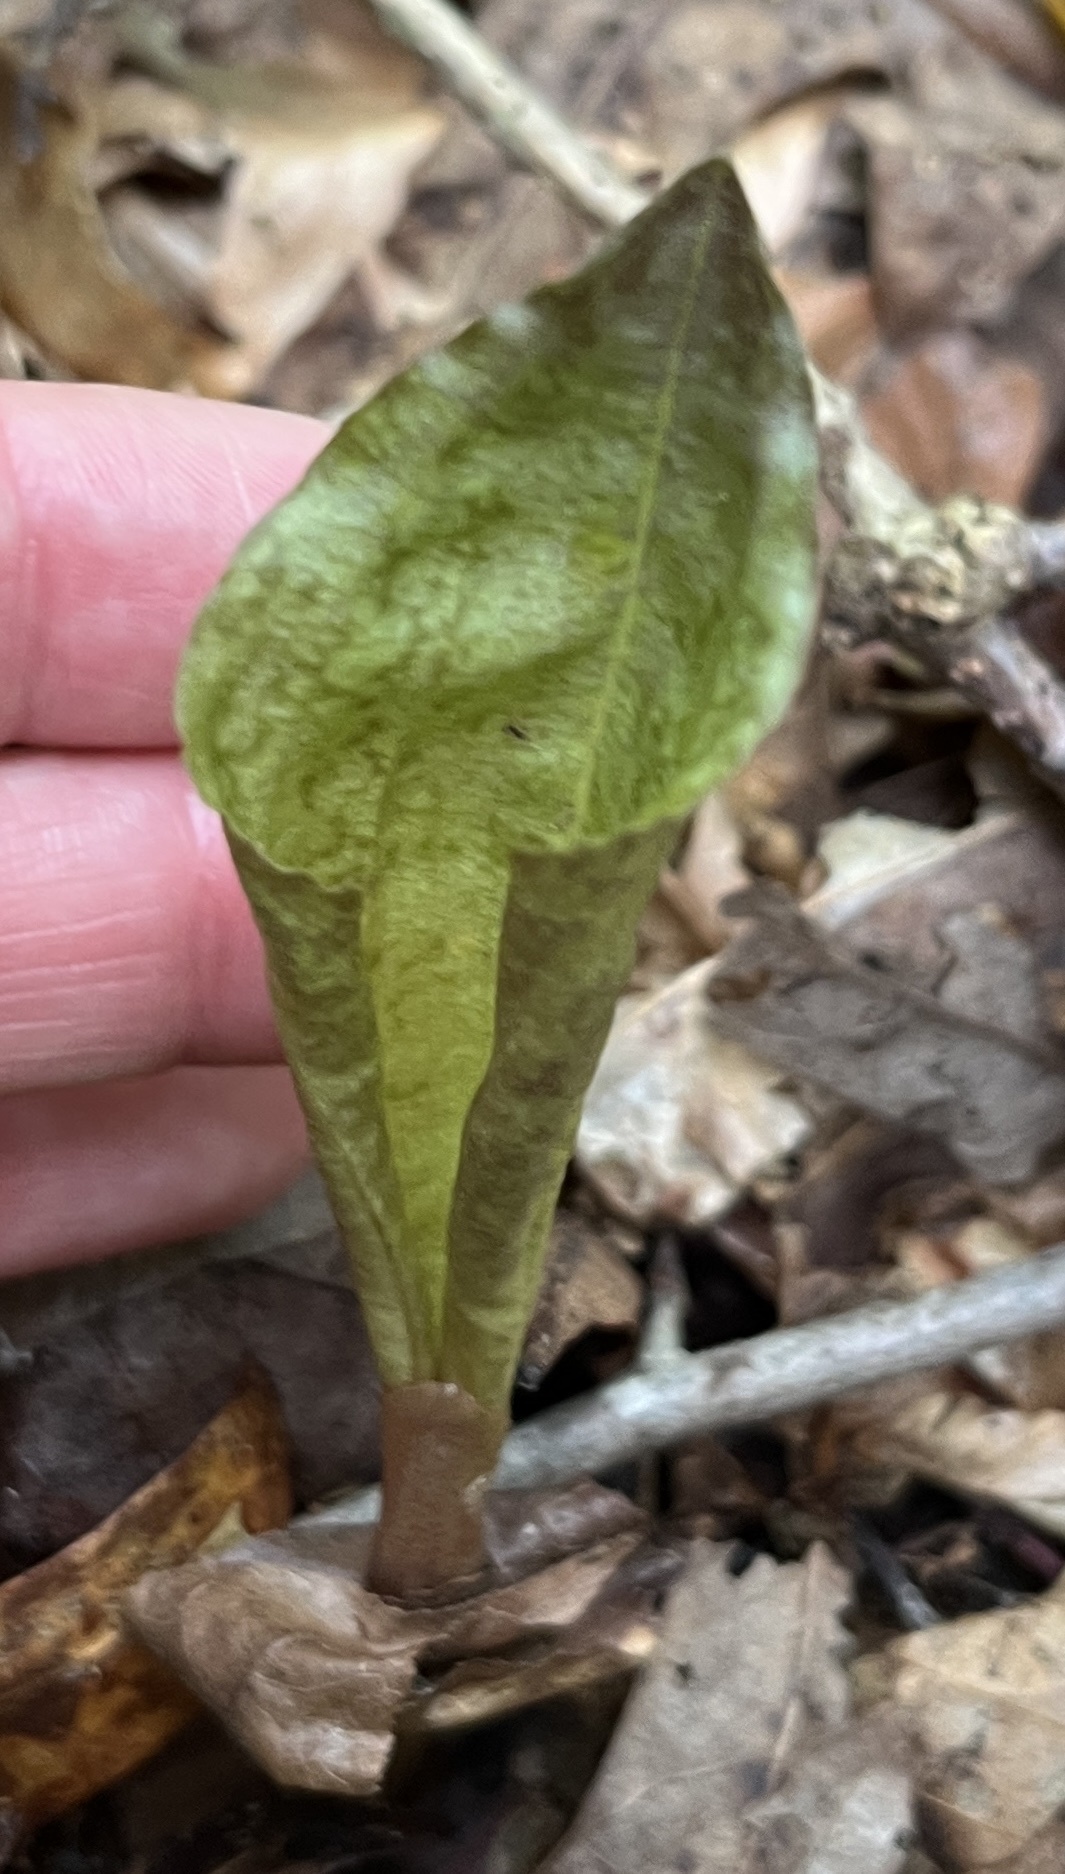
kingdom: Plantae
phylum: Tracheophyta
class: Liliopsida
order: Asparagales
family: Orchidaceae
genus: Tipularia
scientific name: Tipularia discolor
